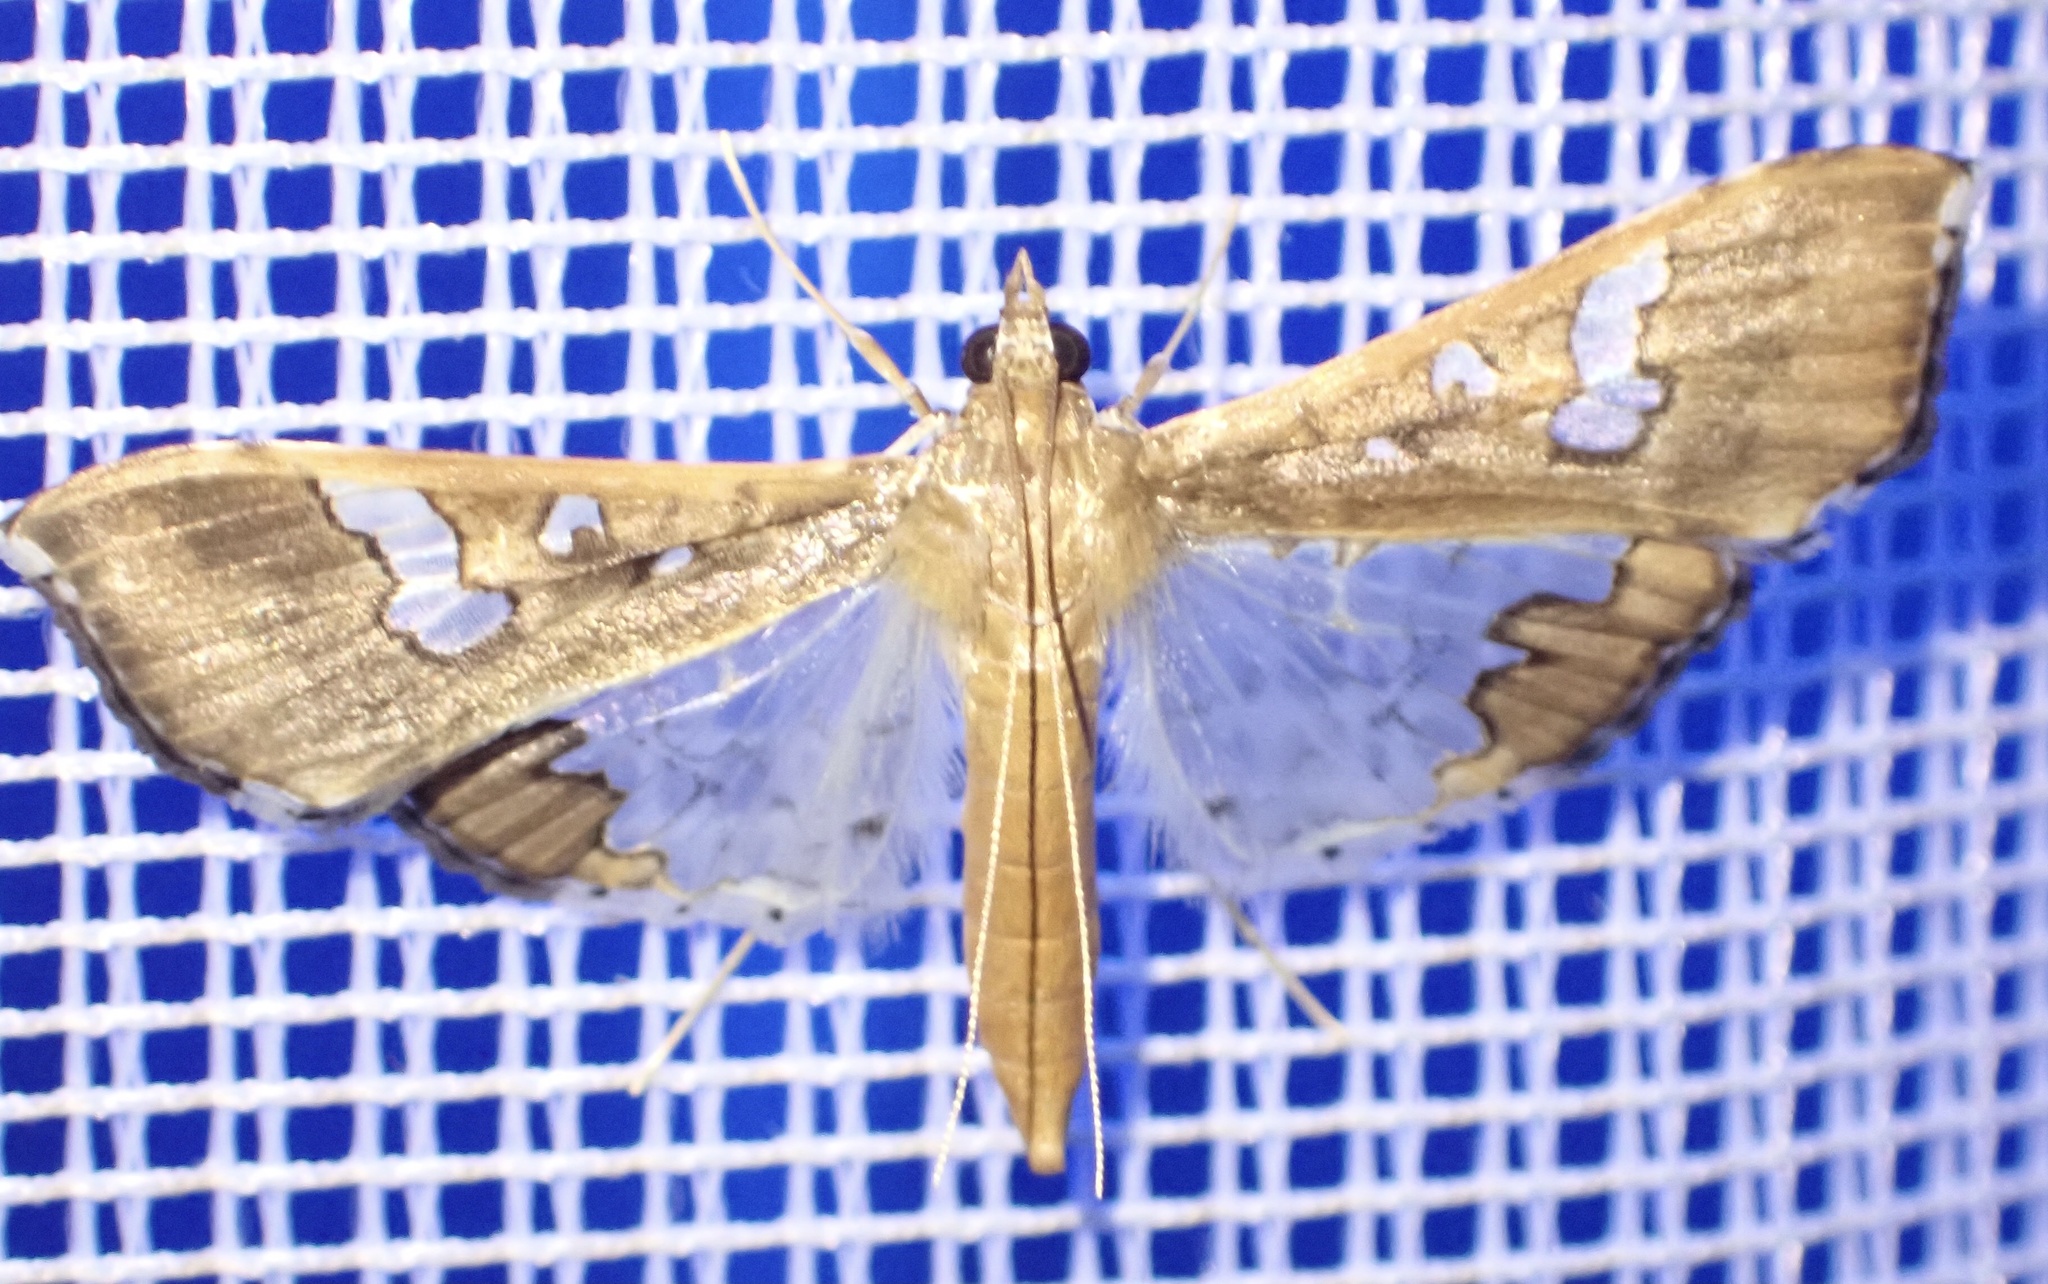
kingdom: Animalia
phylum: Arthropoda
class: Insecta
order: Lepidoptera
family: Crambidae
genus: Maruca
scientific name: Maruca vitrata
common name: Maruca pod borer
